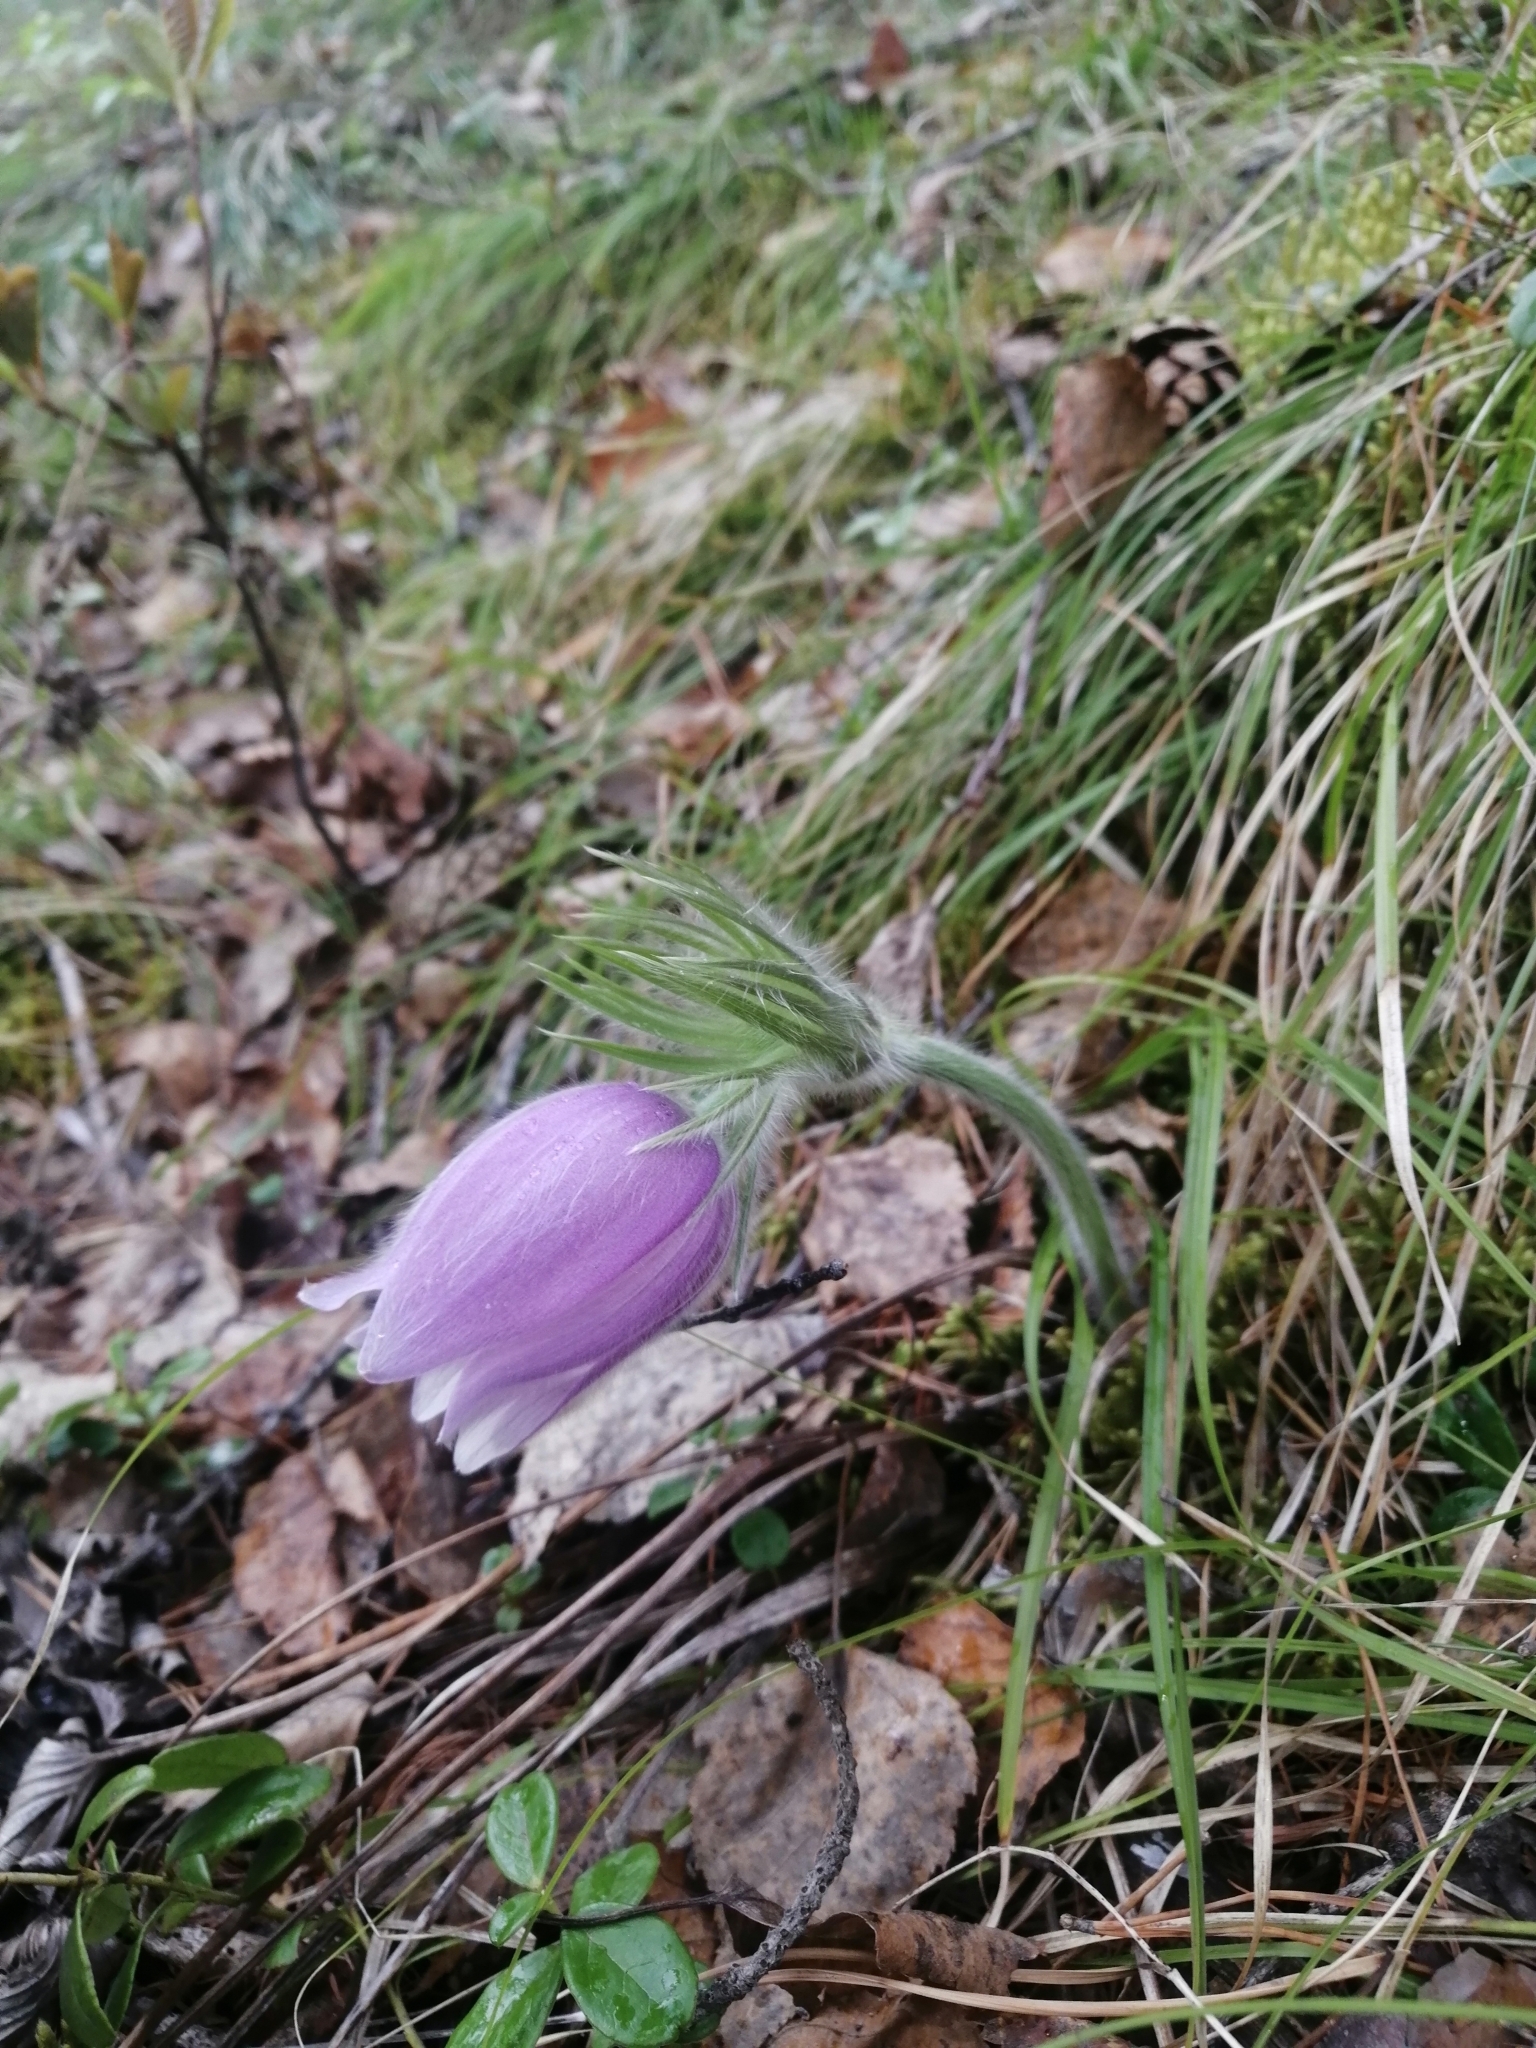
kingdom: Plantae
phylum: Tracheophyta
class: Magnoliopsida
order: Ranunculales
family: Ranunculaceae
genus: Pulsatilla
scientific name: Pulsatilla patens
